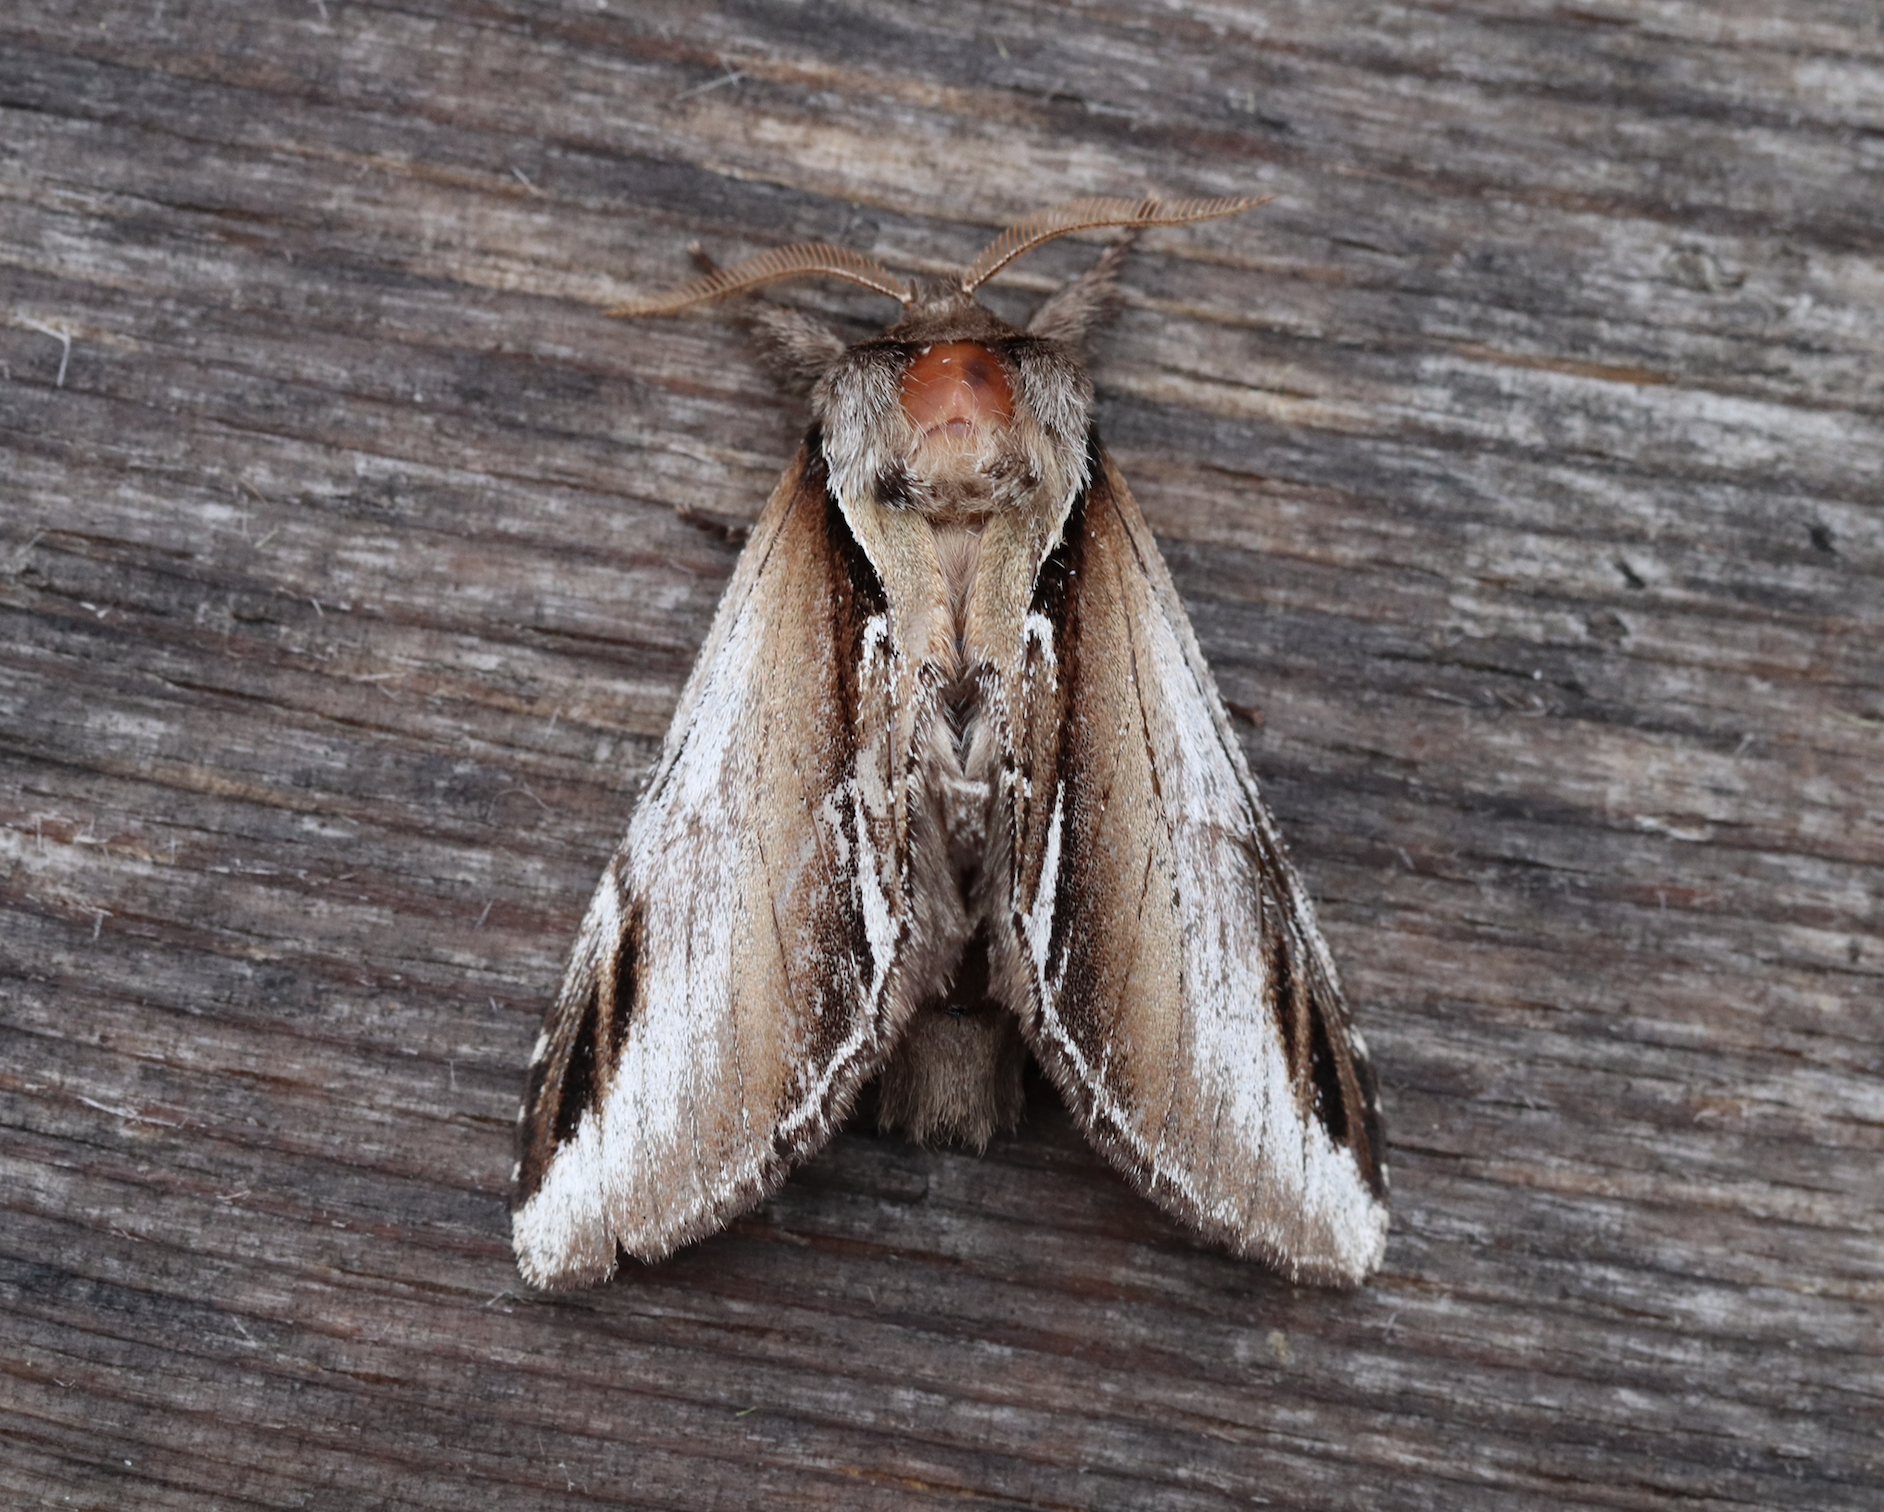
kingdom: Animalia
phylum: Arthropoda
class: Insecta
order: Lepidoptera
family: Notodontidae
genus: Pheosia
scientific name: Pheosia gnoma
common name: Lesser swallow prominent
